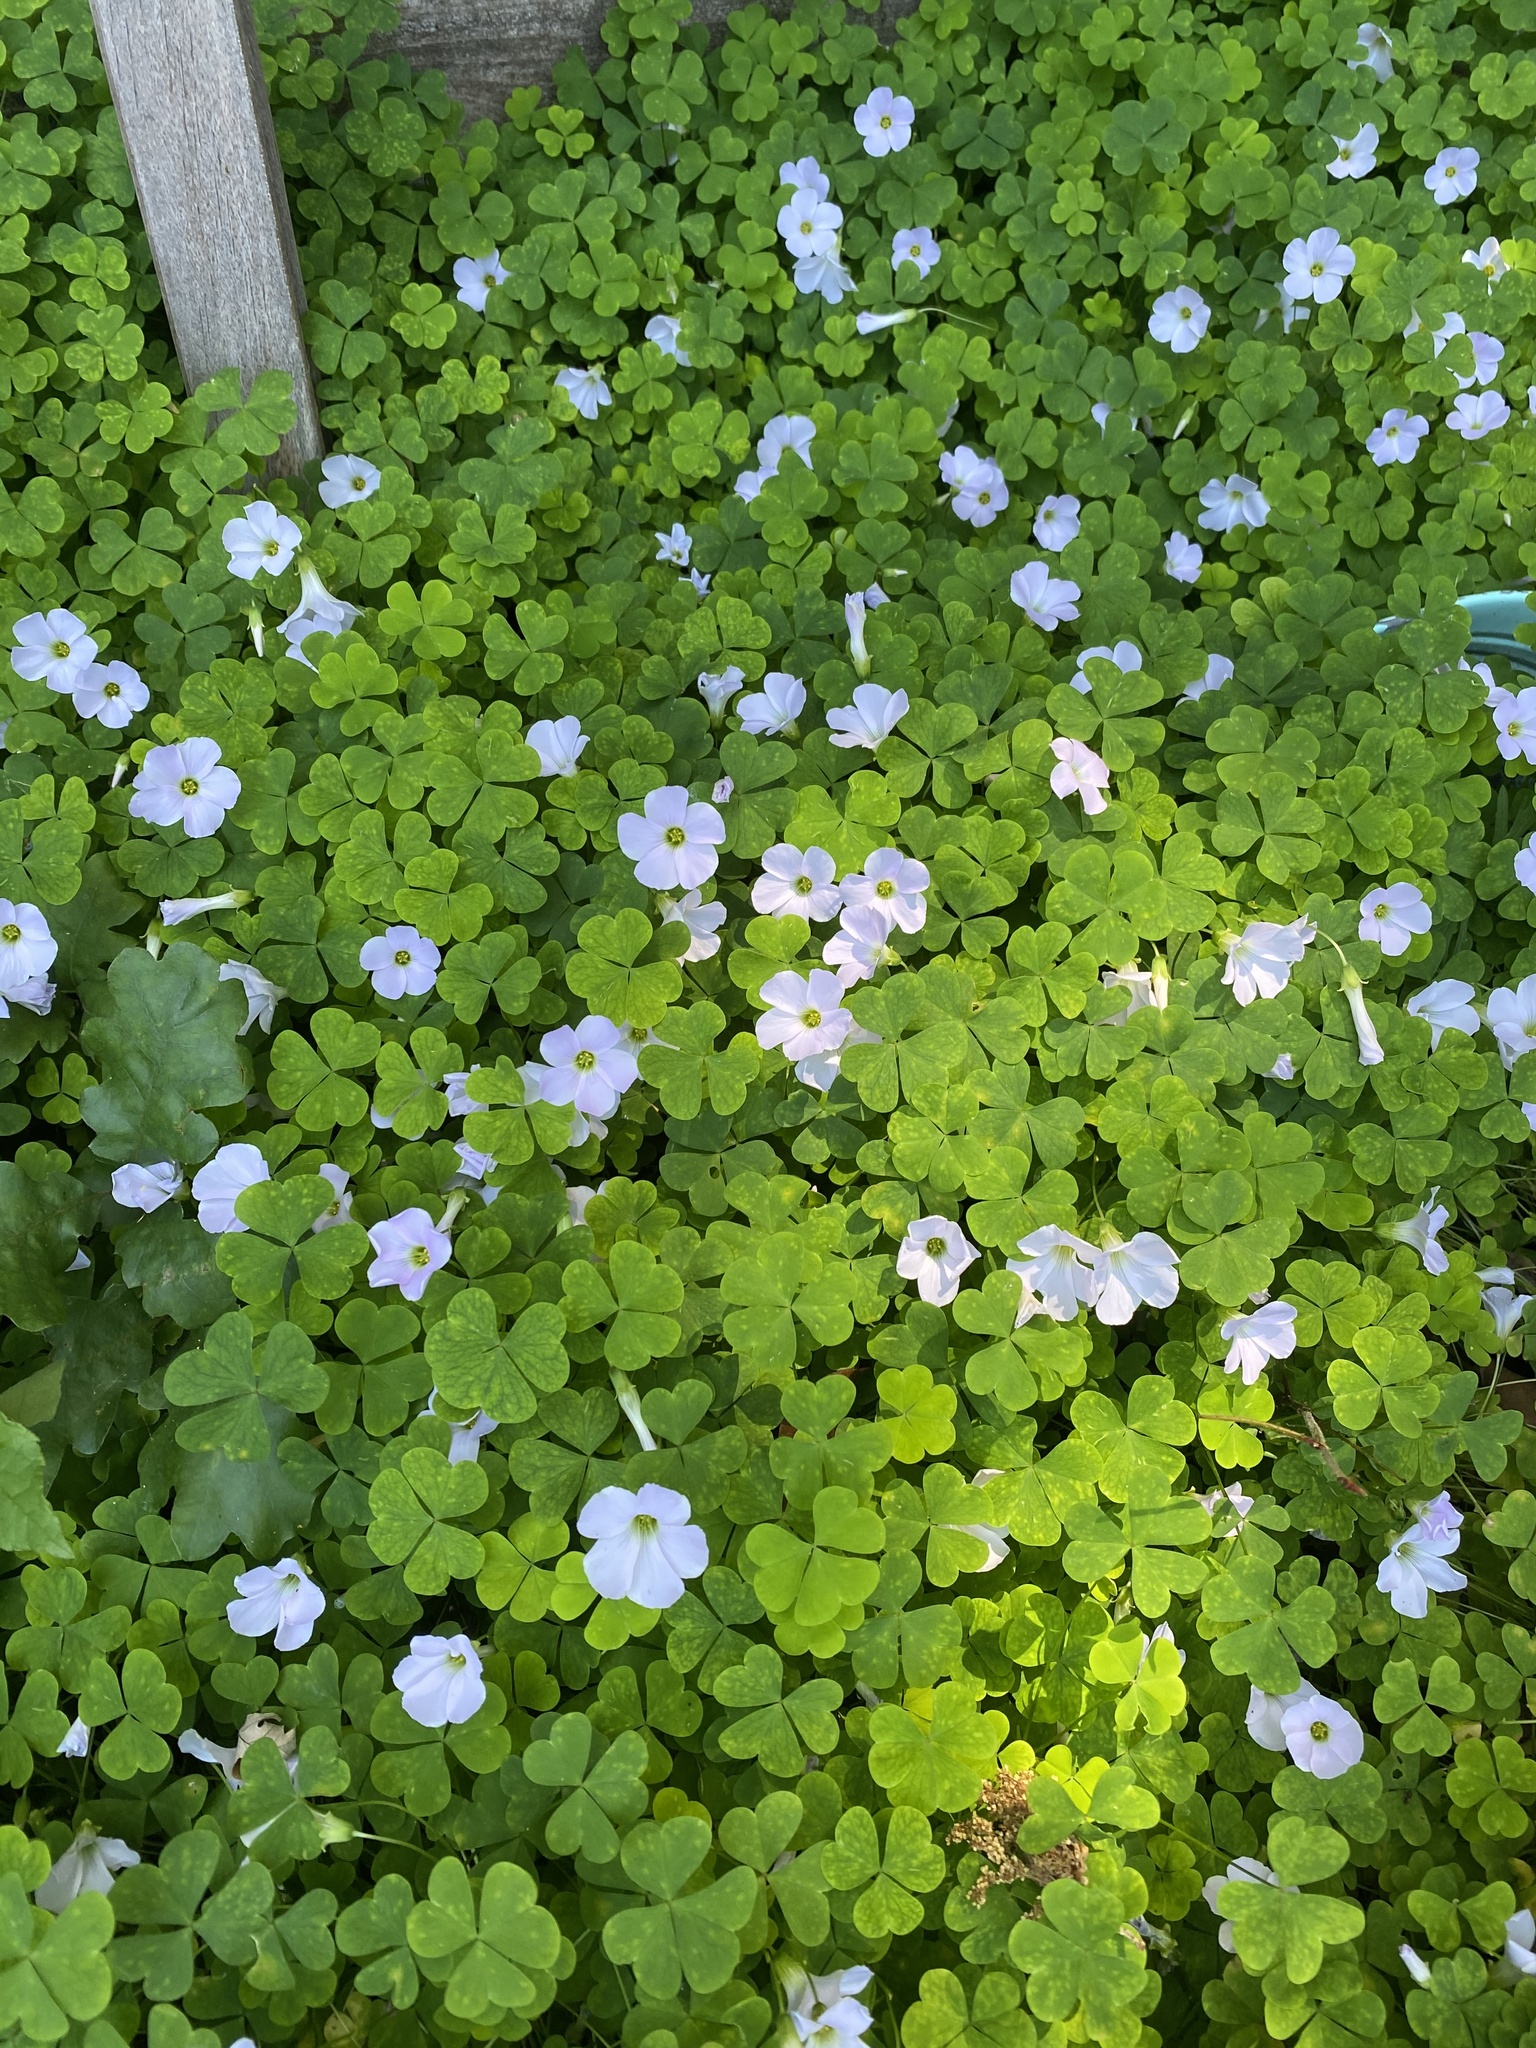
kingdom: Plantae
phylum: Tracheophyta
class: Magnoliopsida
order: Oxalidales
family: Oxalidaceae
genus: Oxalis
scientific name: Oxalis incarnata
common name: Pale pink-sorrel
